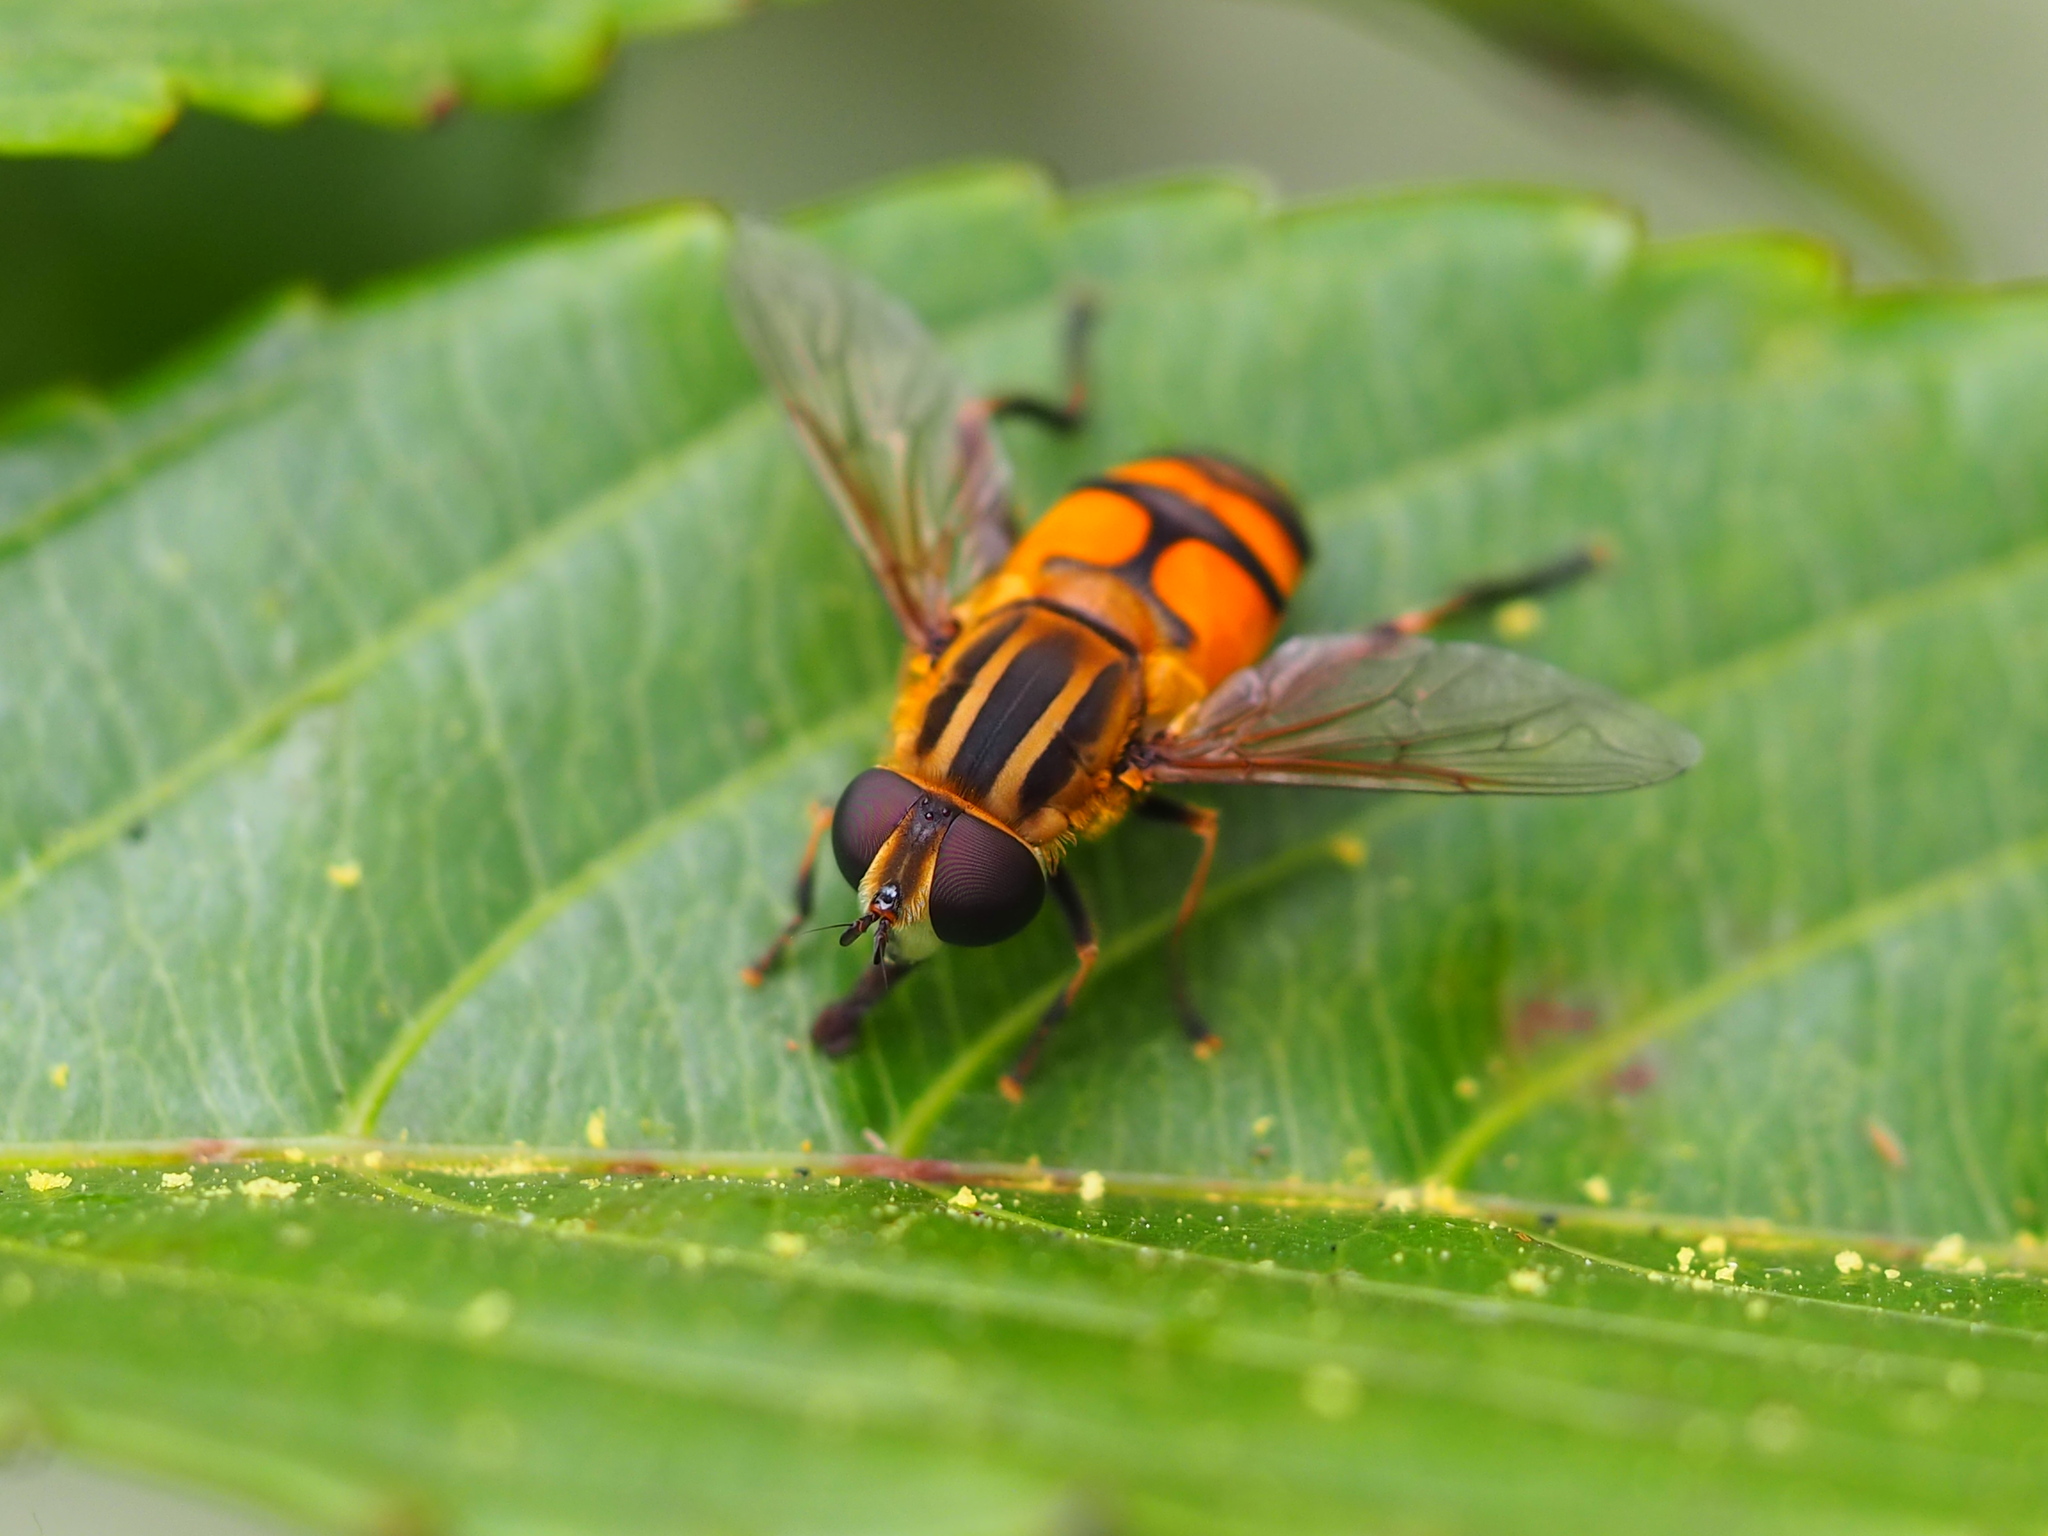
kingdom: Animalia
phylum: Arthropoda
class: Insecta
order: Diptera
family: Syrphidae
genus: Mesembrius
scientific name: Mesembrius bengalensis
